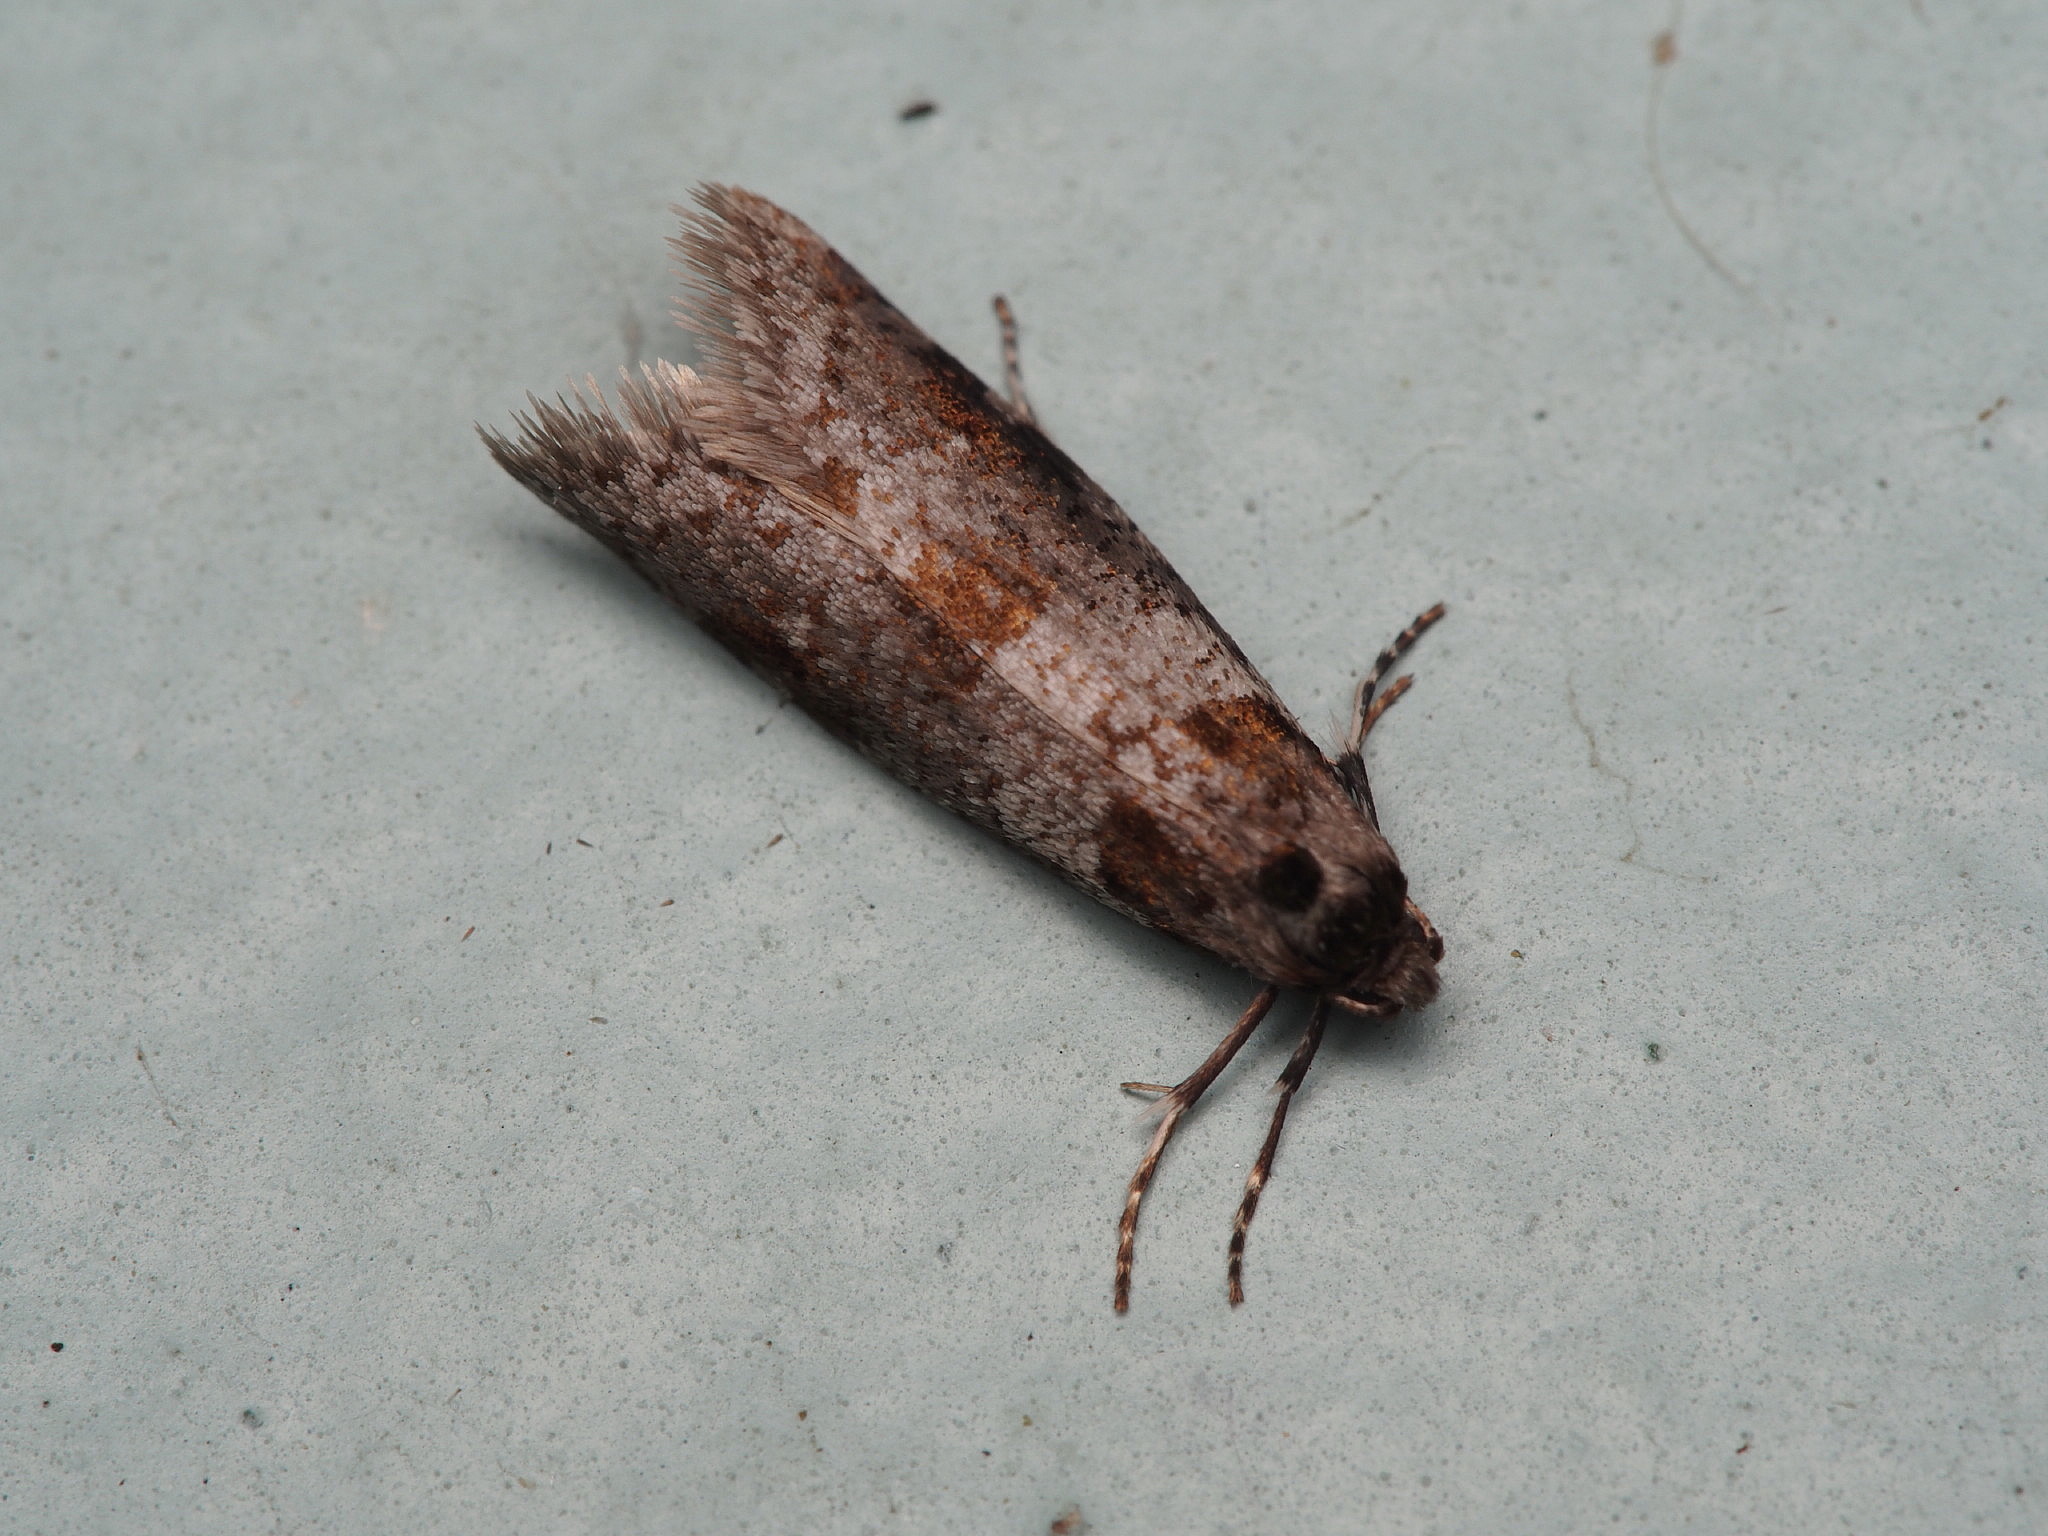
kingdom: Animalia
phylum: Arthropoda
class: Insecta
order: Lepidoptera
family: Psychidae
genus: Lepidoscia
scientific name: Lepidoscia heliochares
